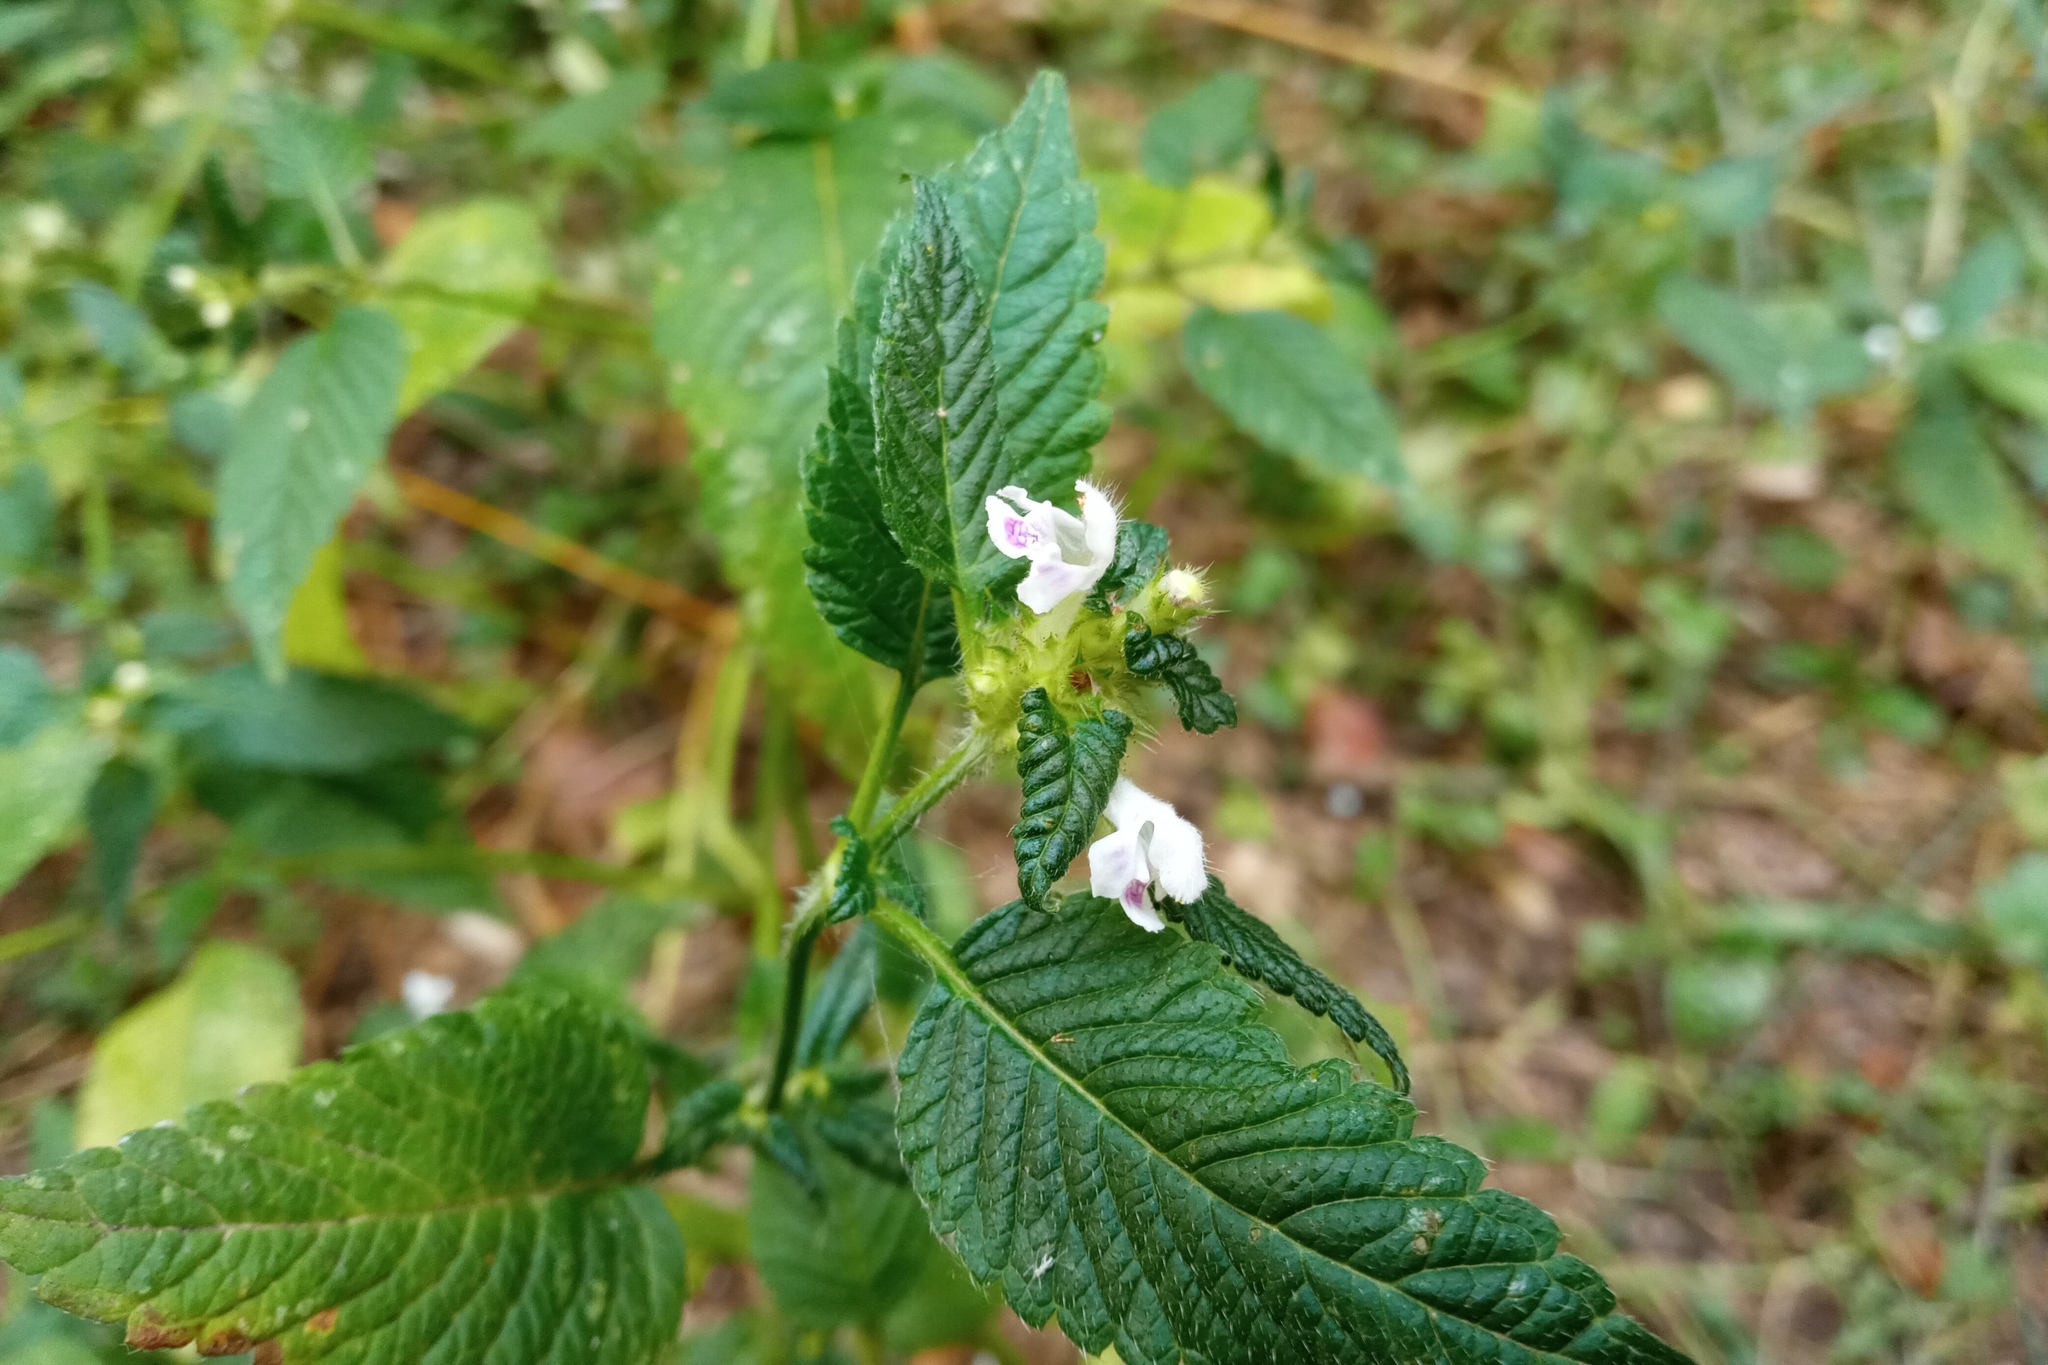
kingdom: Plantae
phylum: Tracheophyta
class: Magnoliopsida
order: Lamiales
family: Lamiaceae
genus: Galeopsis
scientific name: Galeopsis tetrahit
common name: Common hemp-nettle
